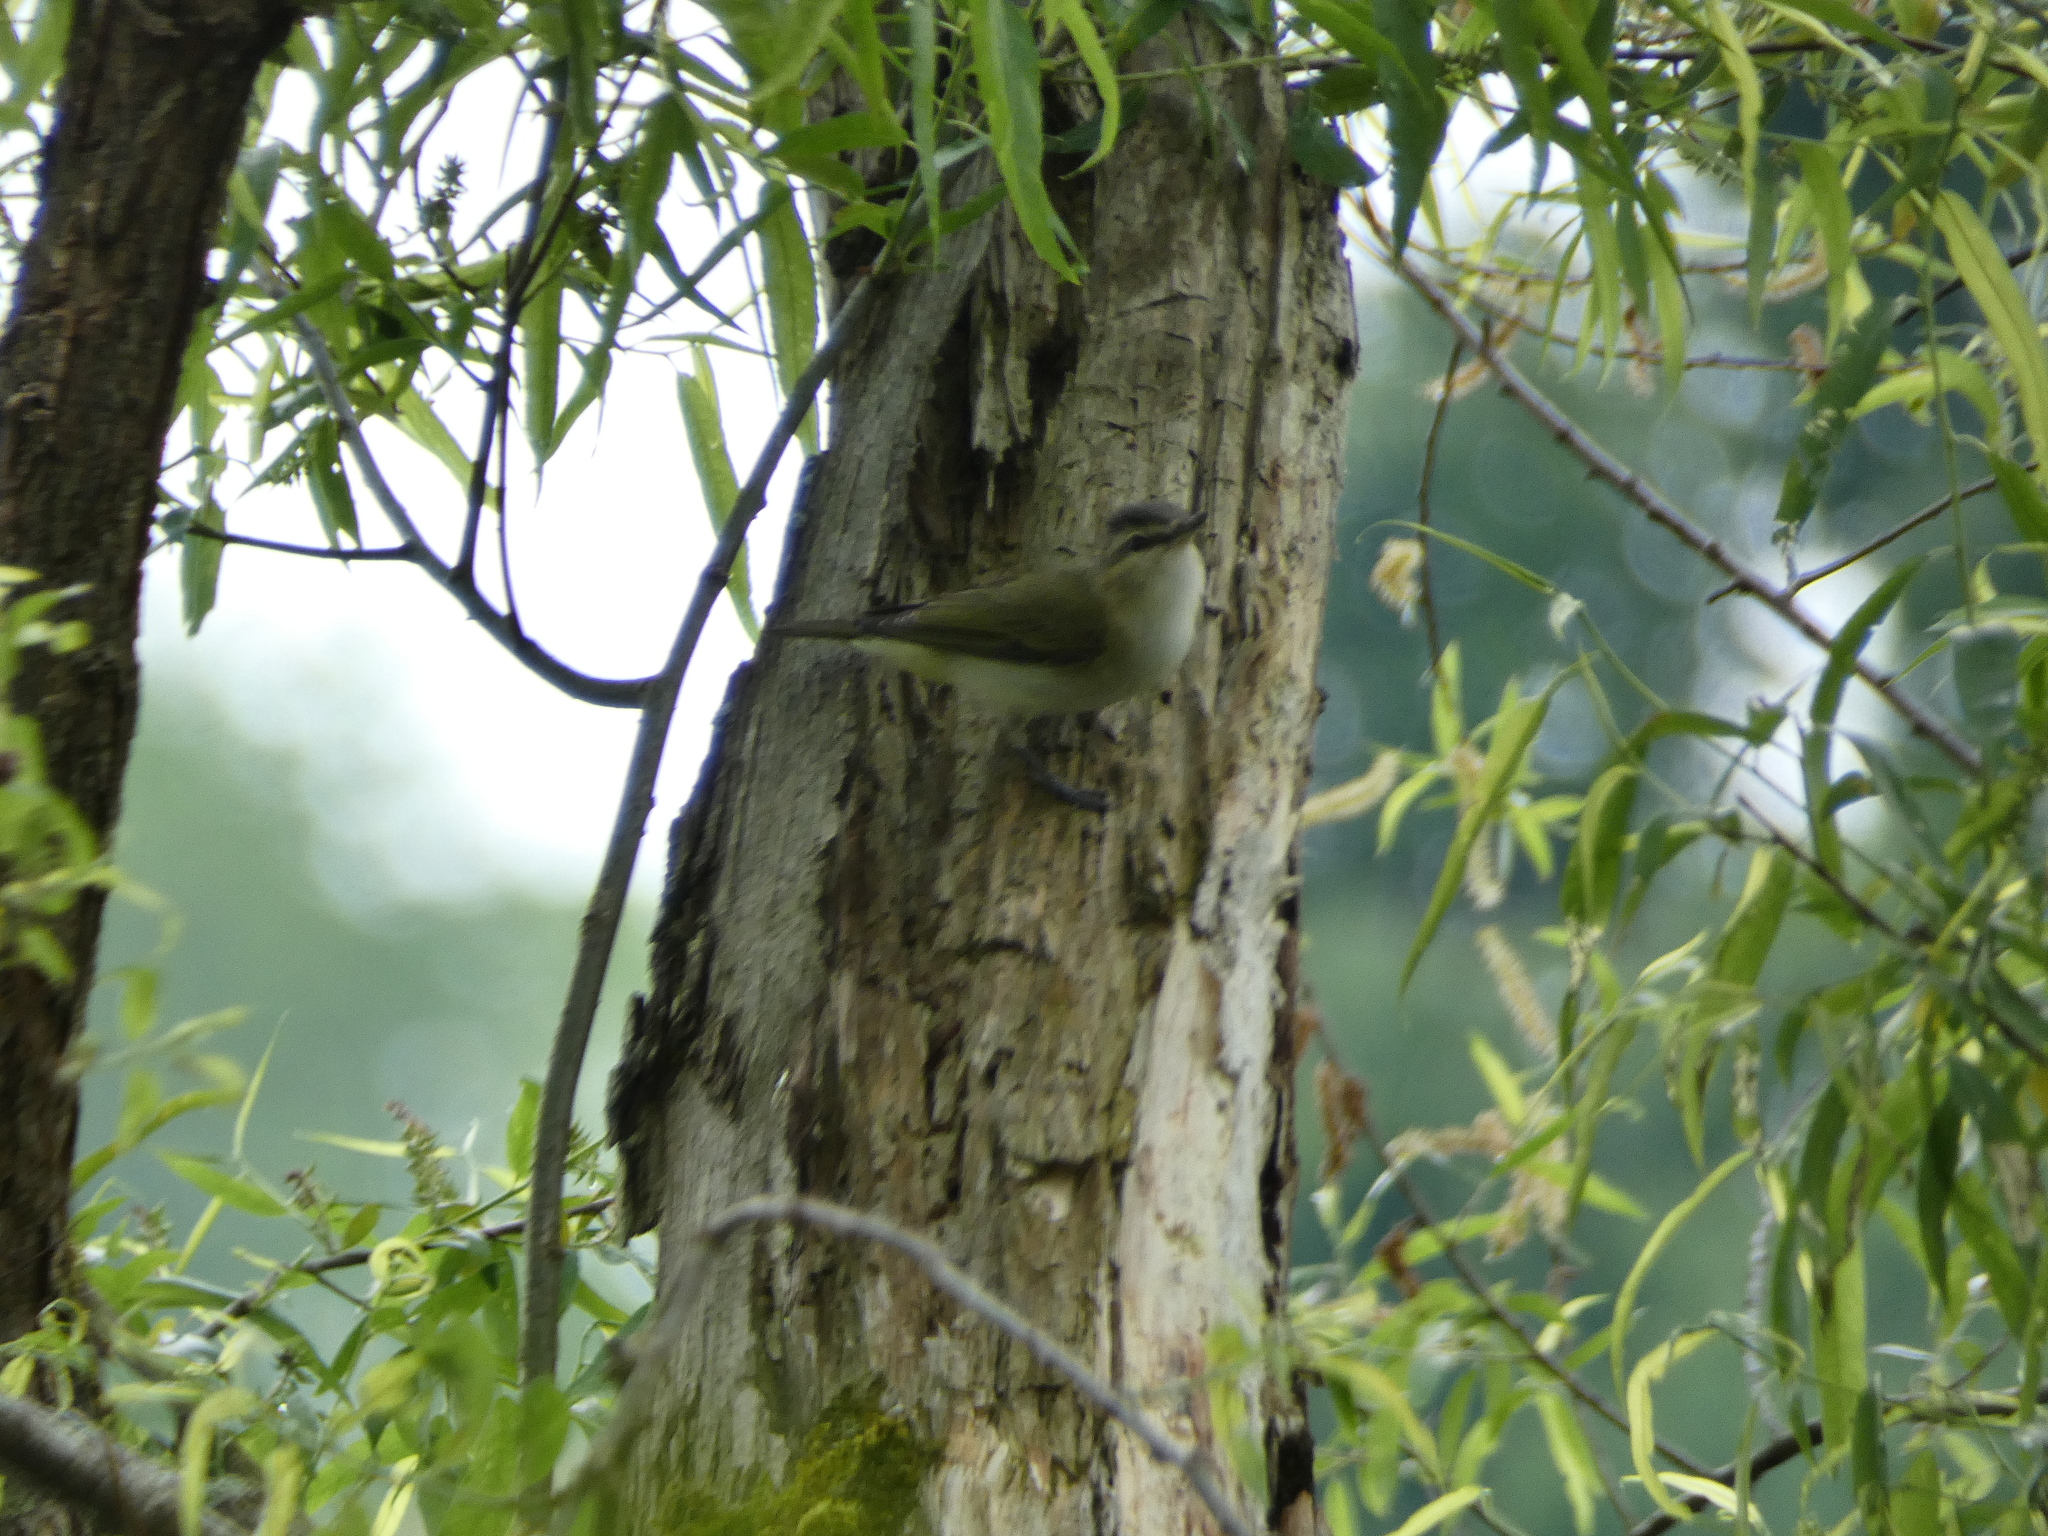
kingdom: Animalia
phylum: Chordata
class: Aves
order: Passeriformes
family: Vireonidae
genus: Vireo
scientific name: Vireo olivaceus
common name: Red-eyed vireo
